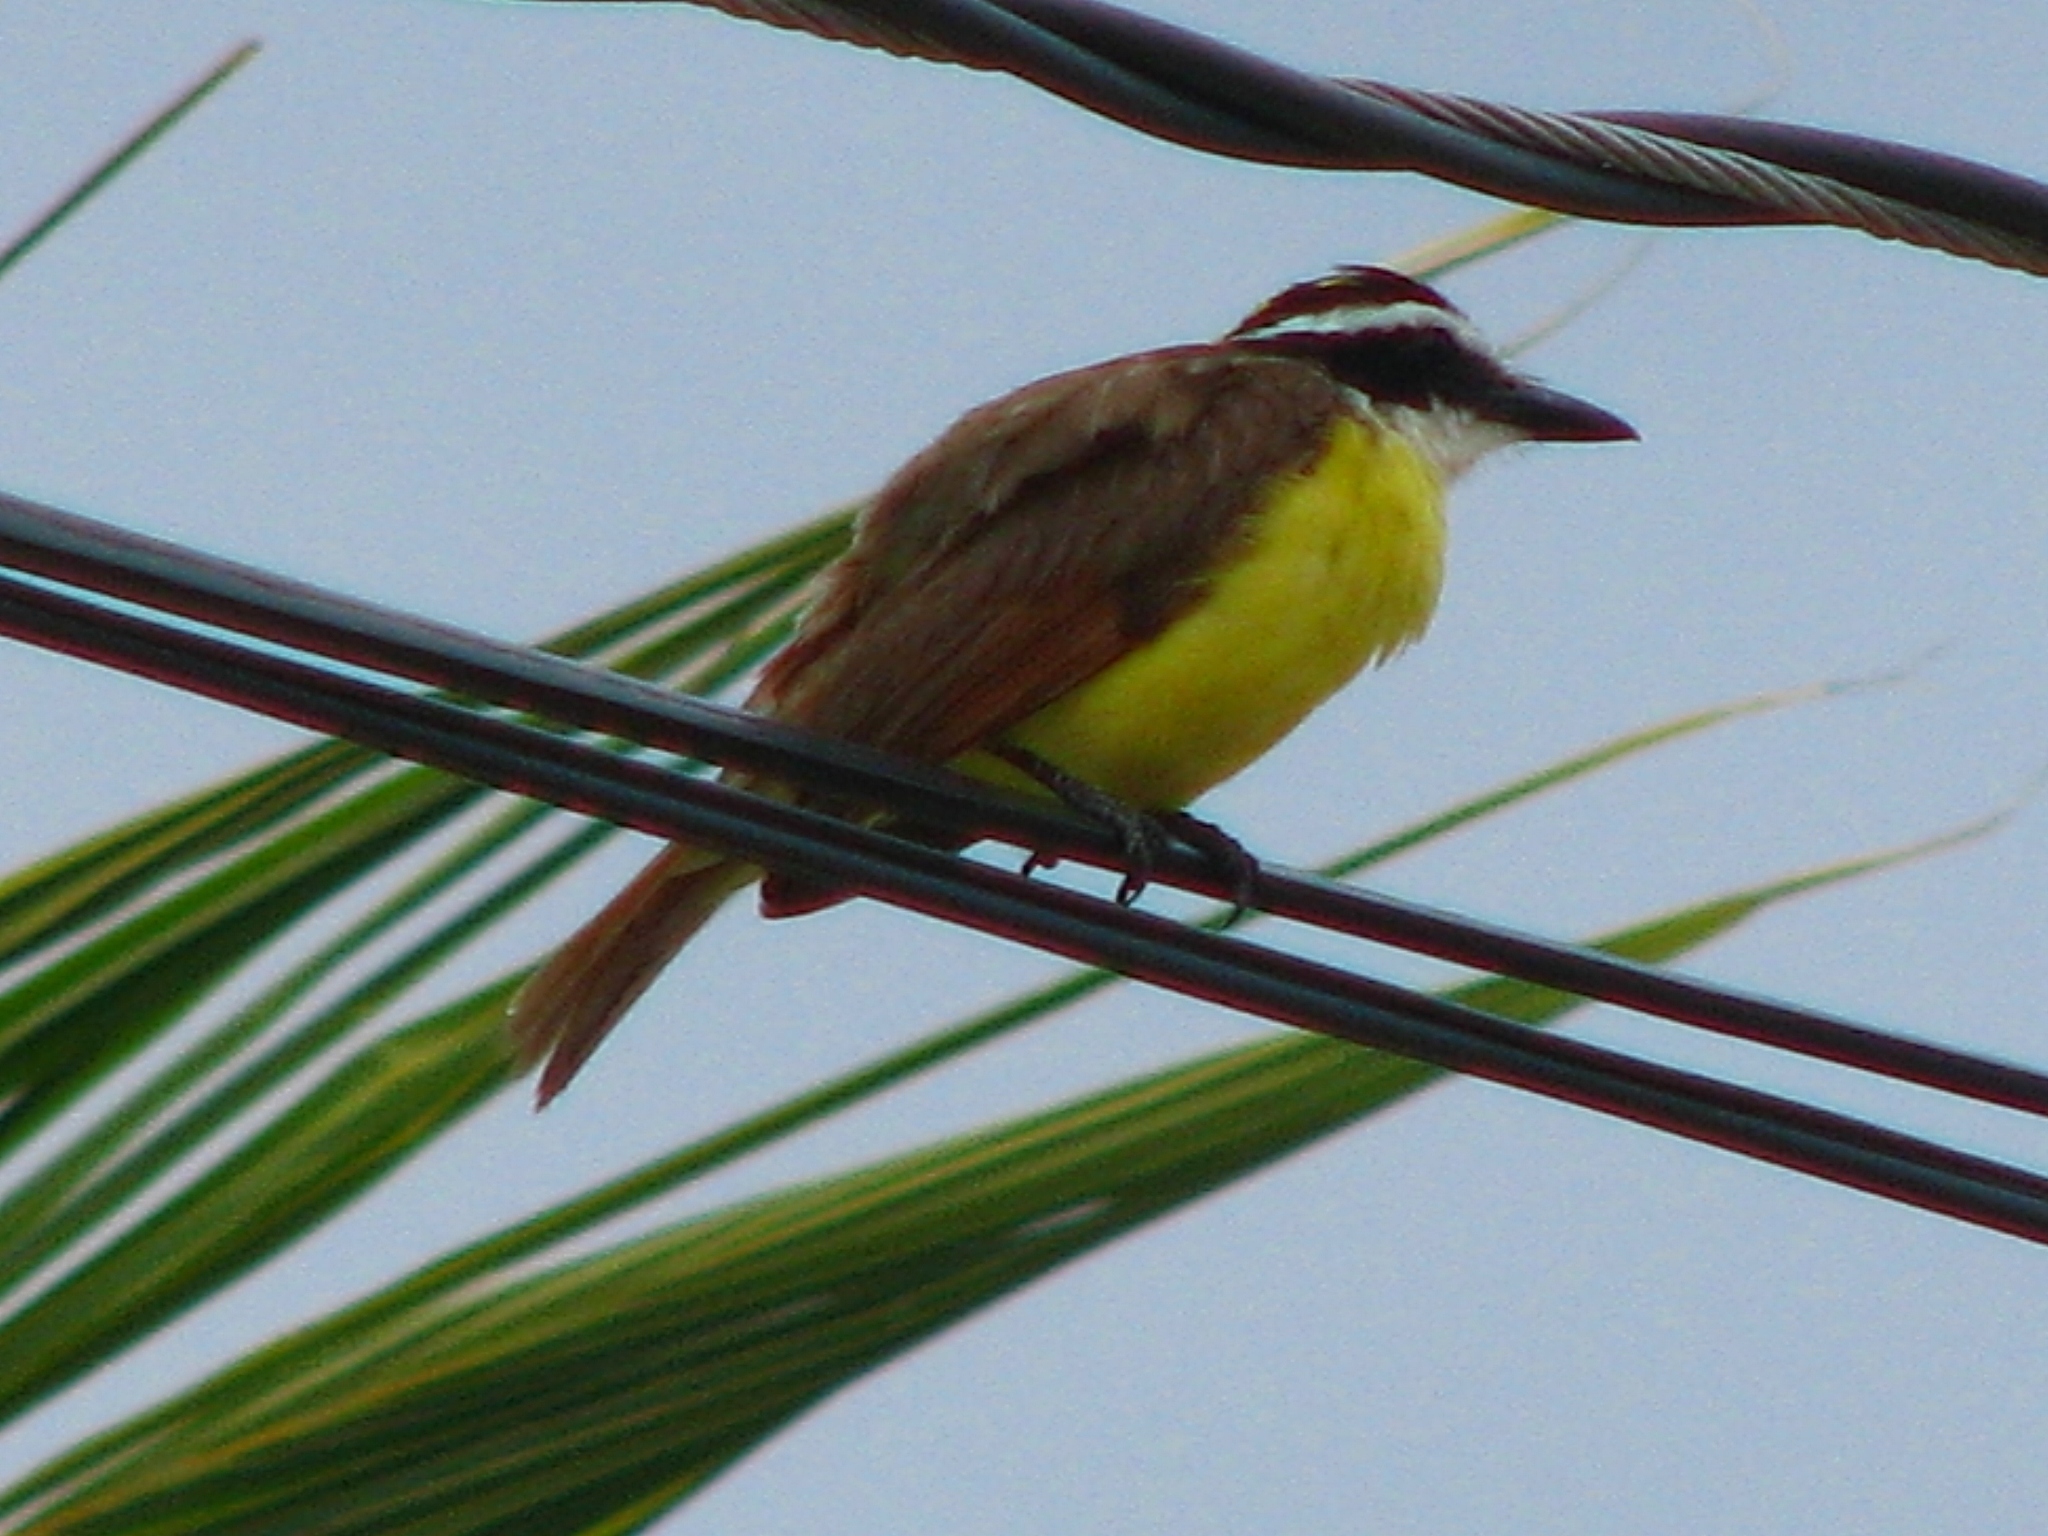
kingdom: Animalia
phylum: Chordata
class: Aves
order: Passeriformes
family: Tyrannidae
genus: Pitangus
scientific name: Pitangus sulphuratus
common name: Great kiskadee
